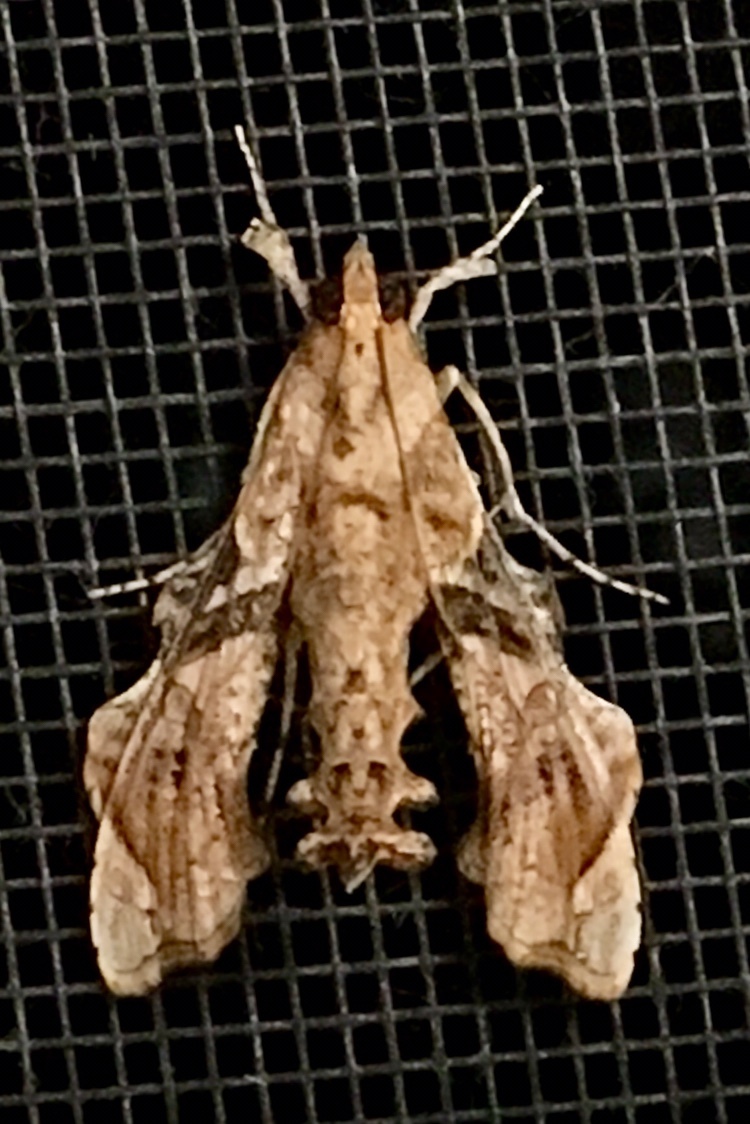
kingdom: Animalia
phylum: Arthropoda
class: Insecta
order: Lepidoptera
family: Crambidae
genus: Terastia
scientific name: Terastia meticulosalis
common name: Moth
